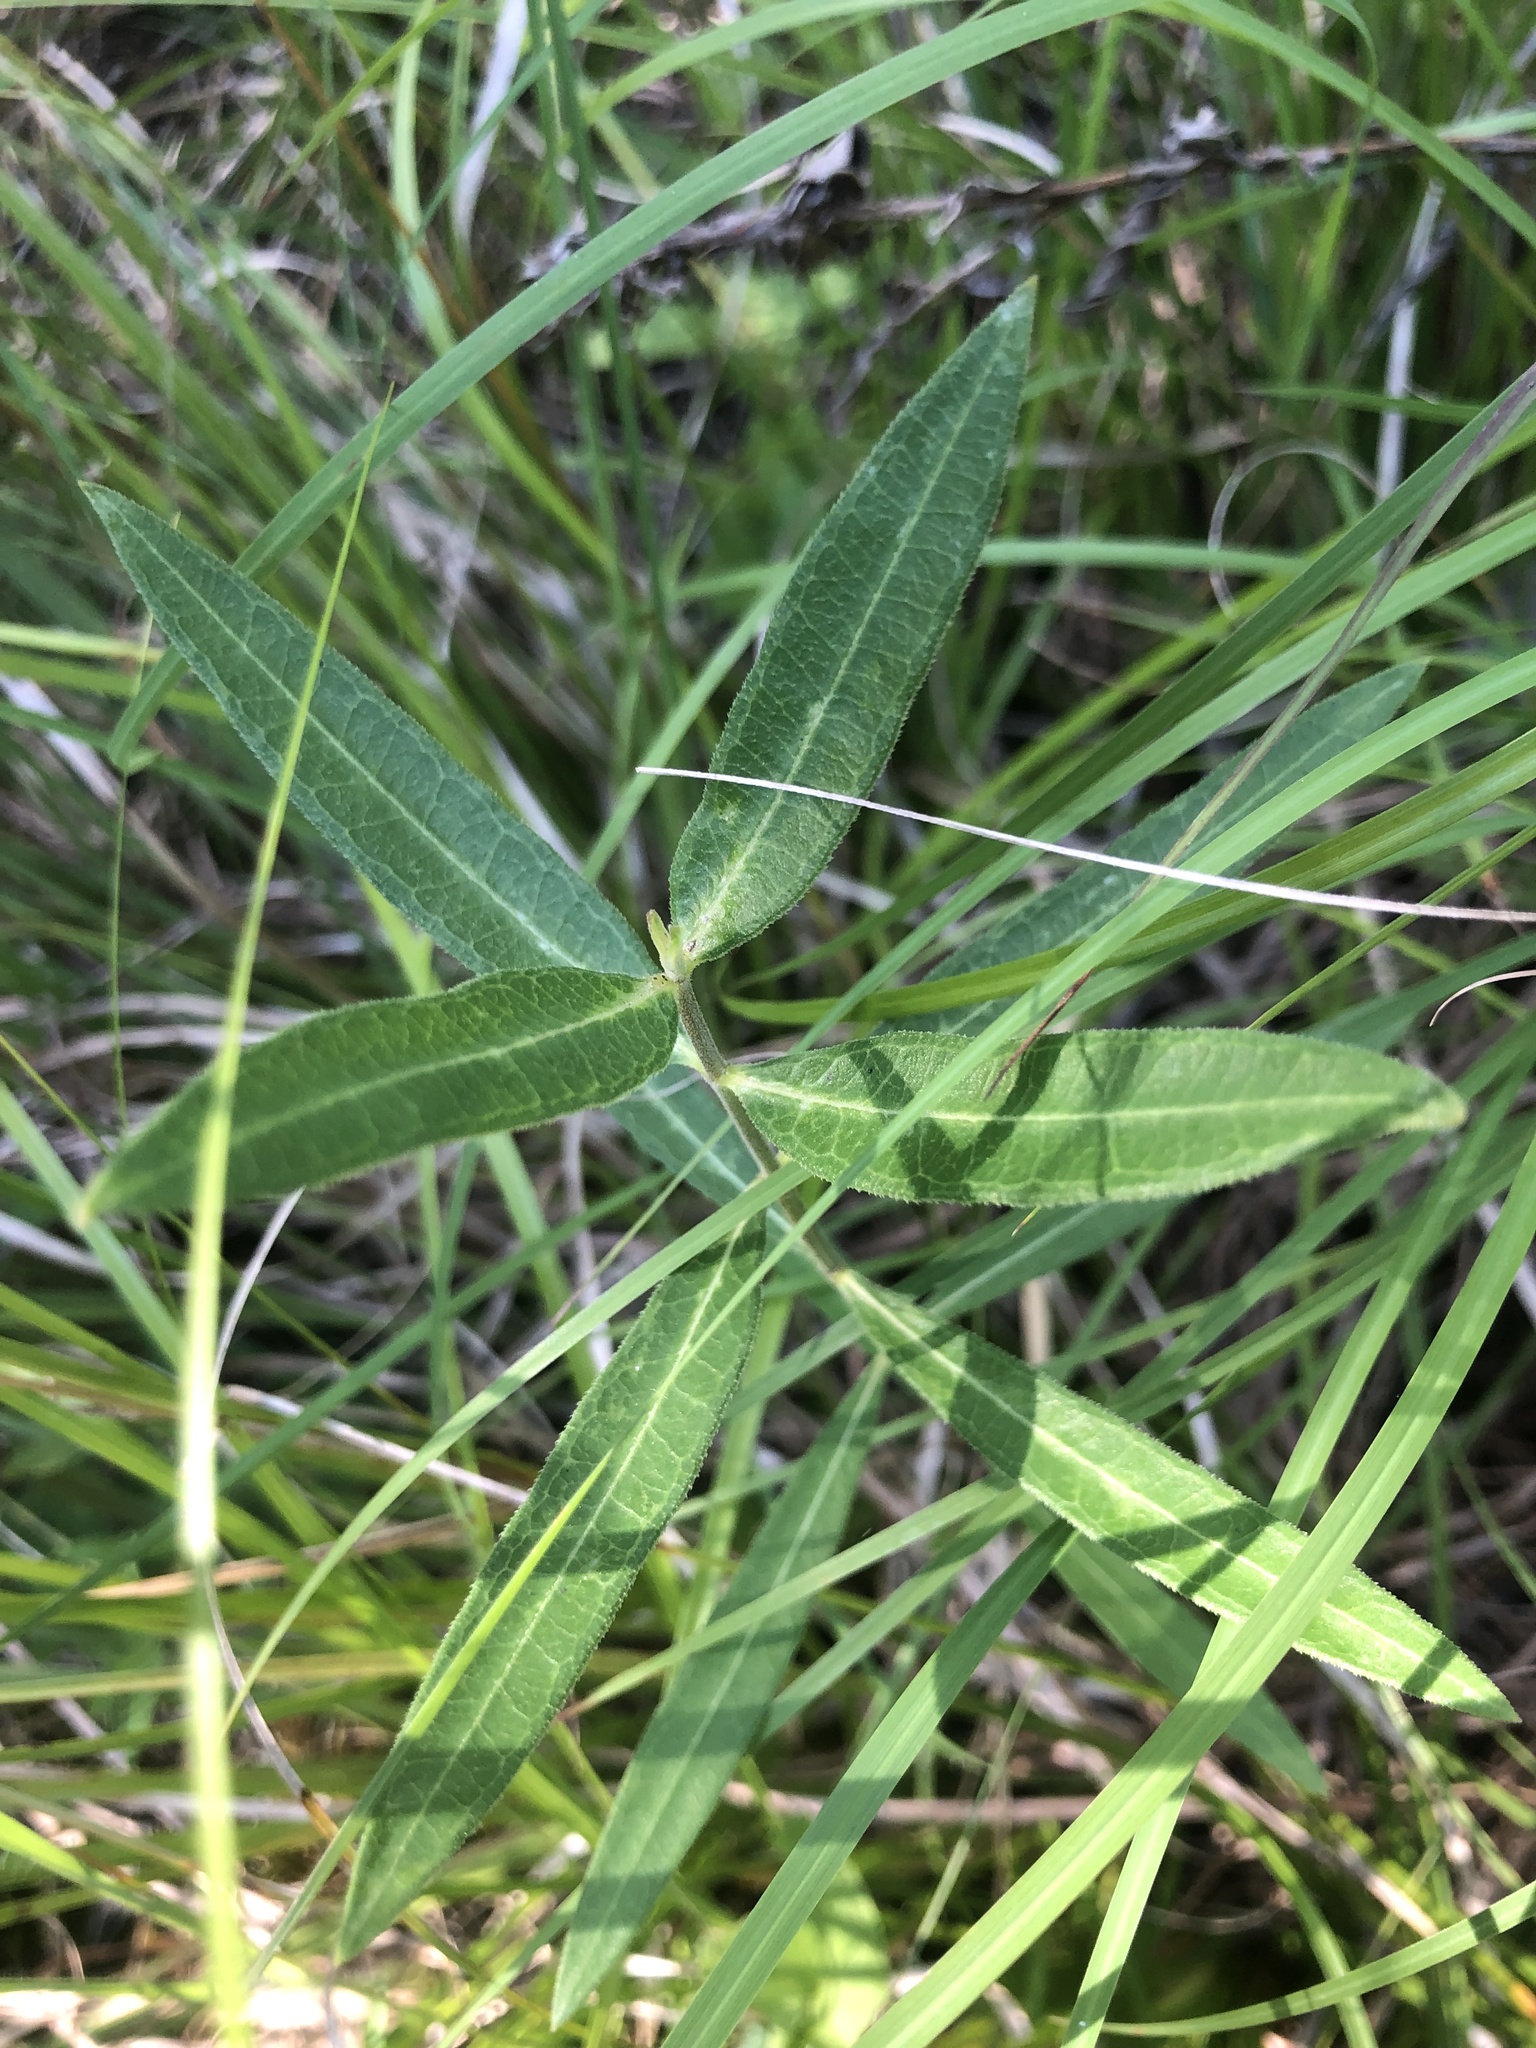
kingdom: Plantae
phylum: Tracheophyta
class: Magnoliopsida
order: Gentianales
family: Apocynaceae
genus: Asclepias
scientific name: Asclepias viridiflora
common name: Green comet milkweed
